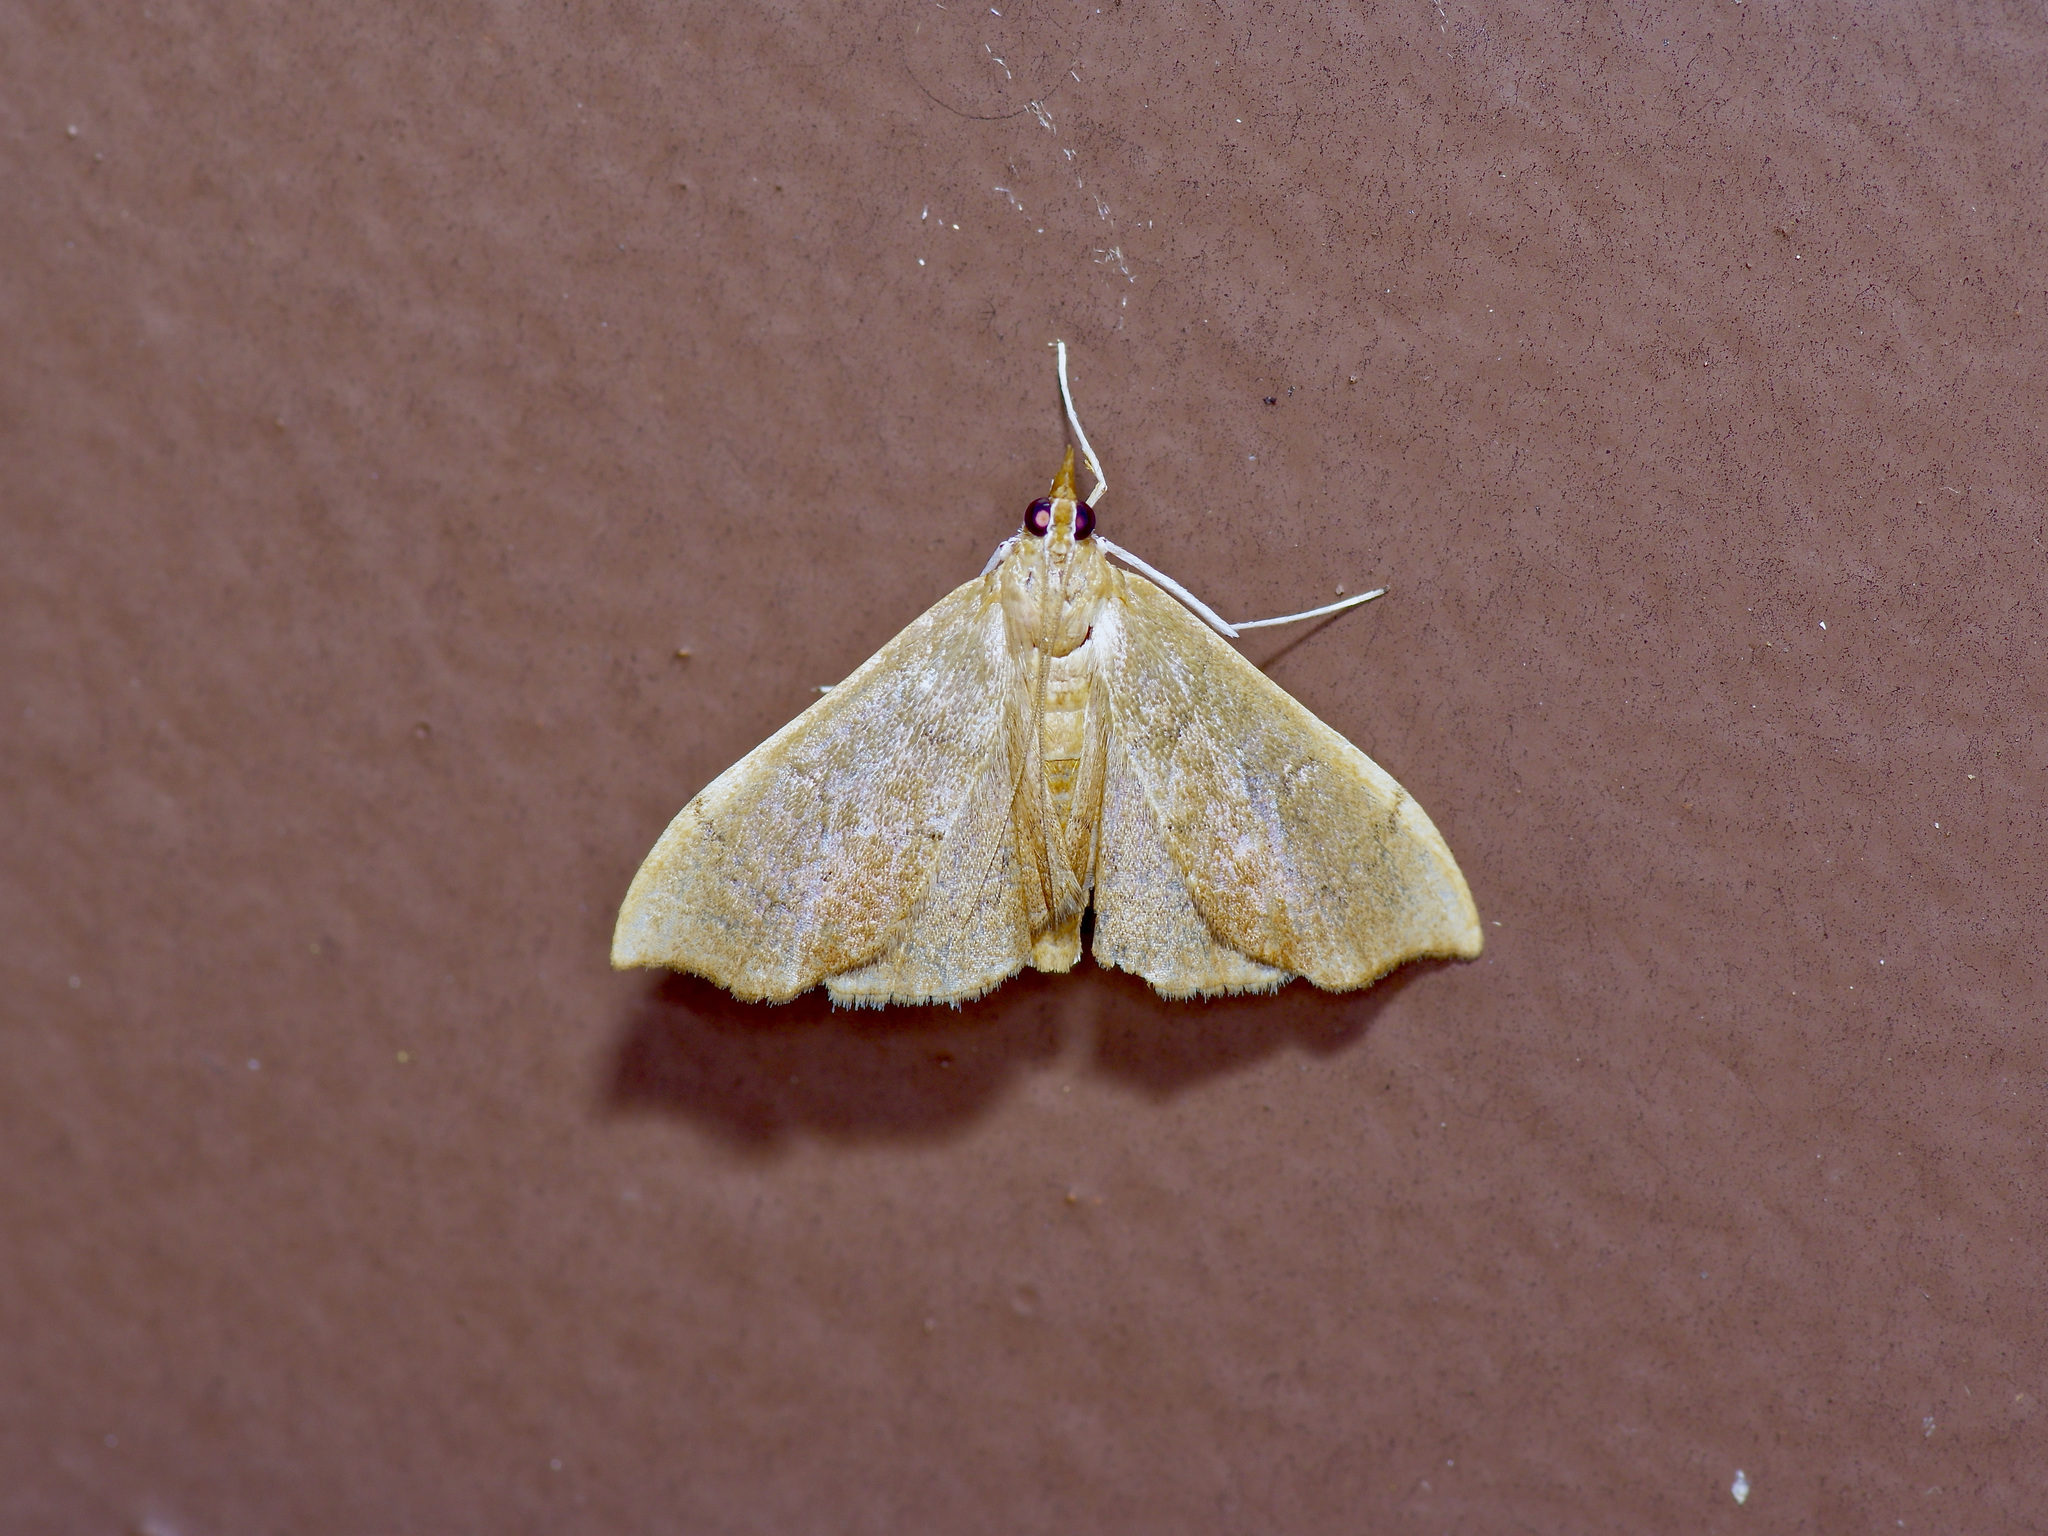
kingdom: Animalia
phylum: Arthropoda
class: Insecta
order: Lepidoptera
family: Crambidae
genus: Sericoplaga
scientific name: Sericoplaga externalis
